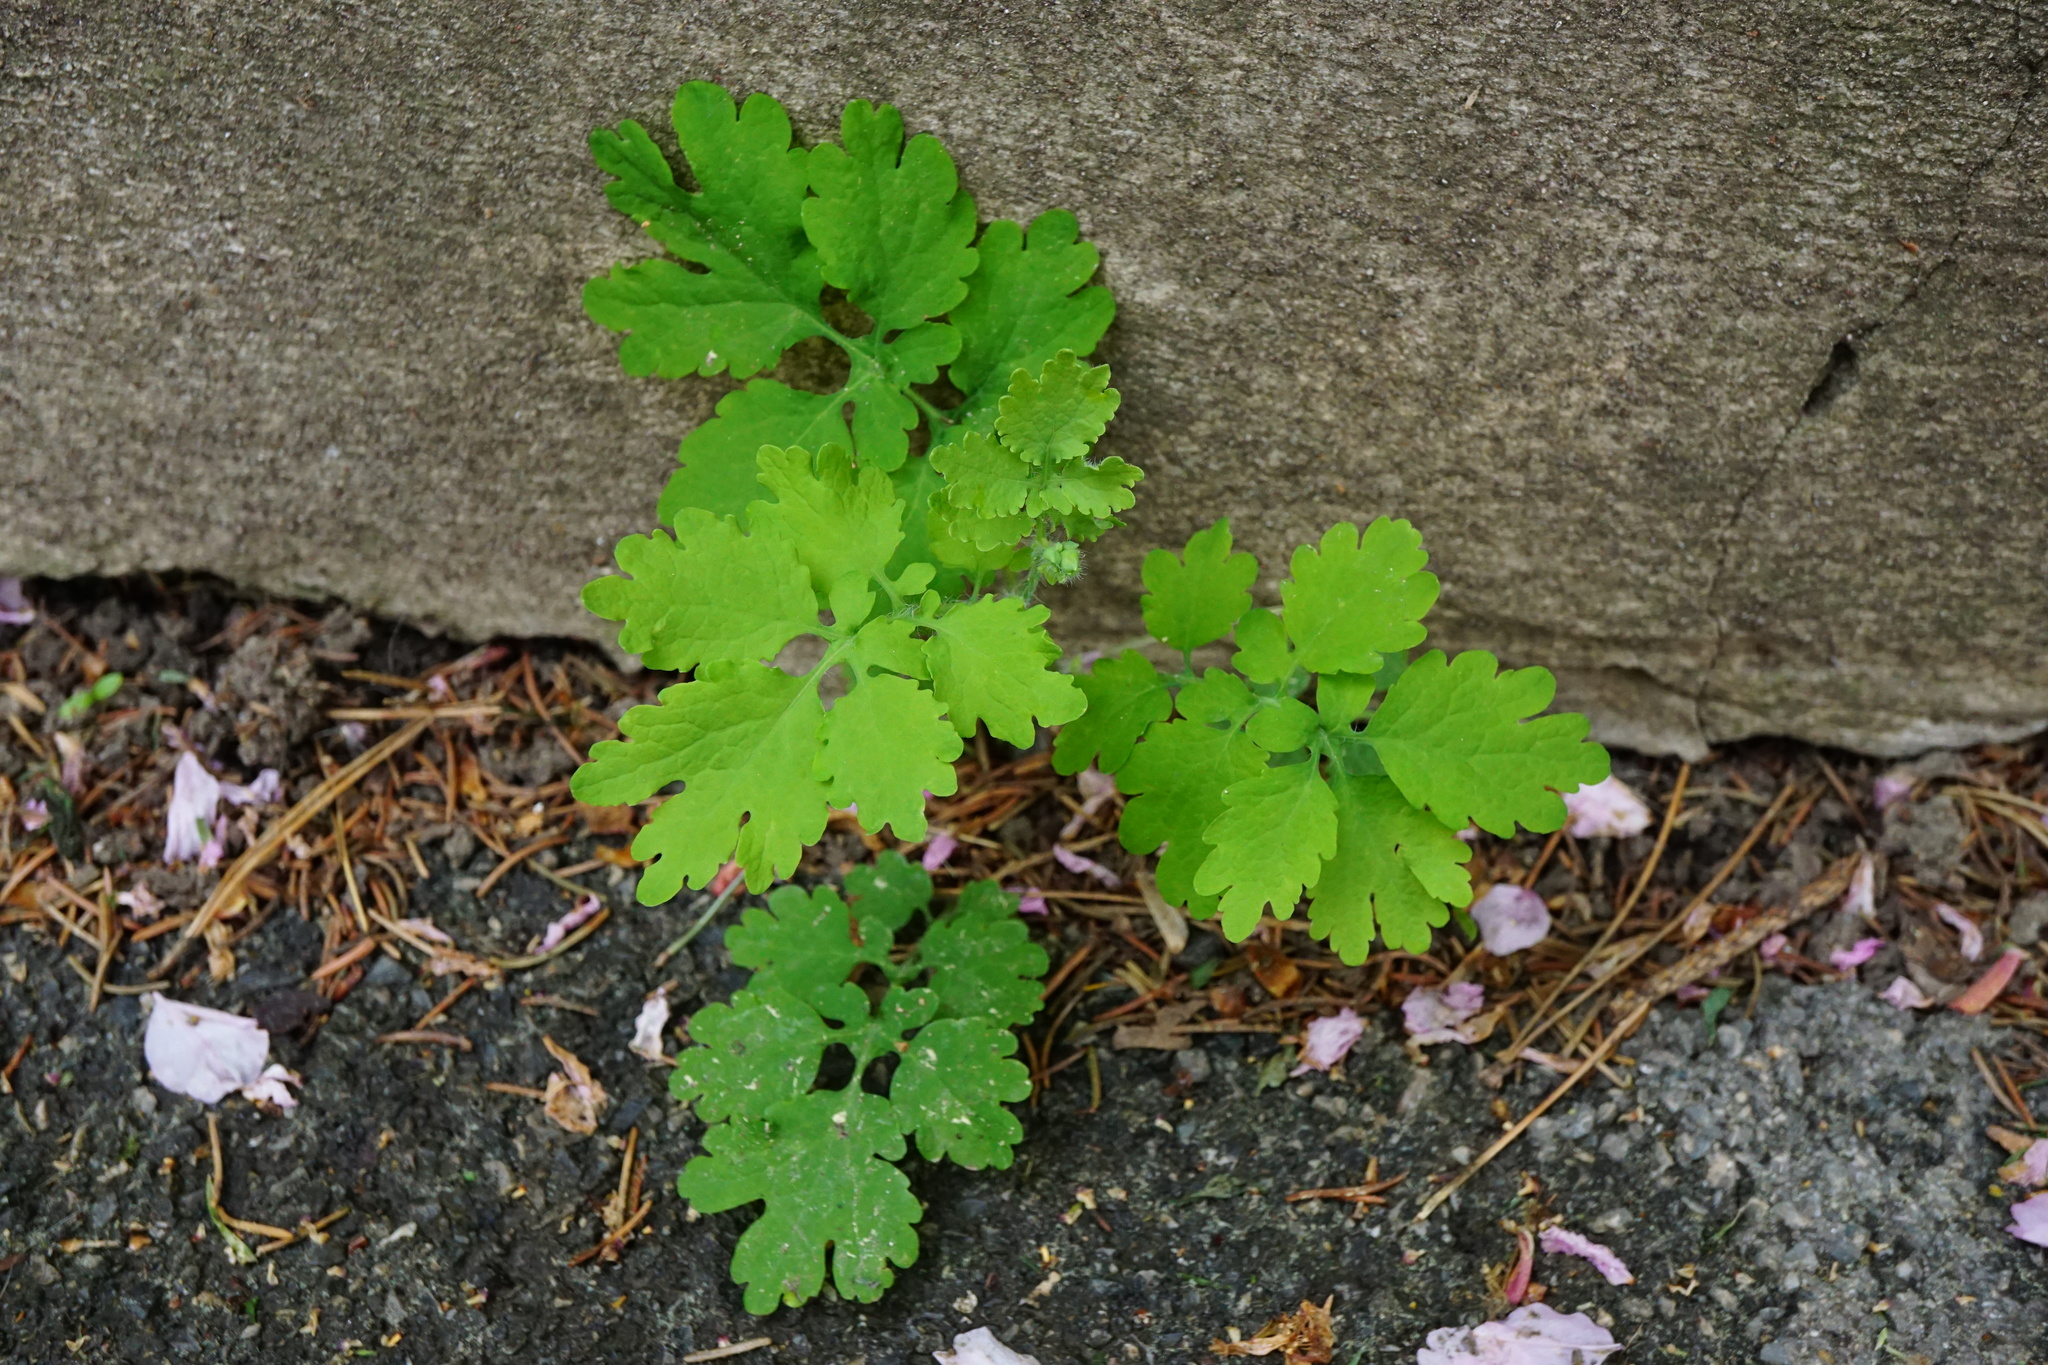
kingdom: Plantae
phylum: Tracheophyta
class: Magnoliopsida
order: Ranunculales
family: Papaveraceae
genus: Chelidonium
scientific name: Chelidonium majus
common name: Greater celandine
